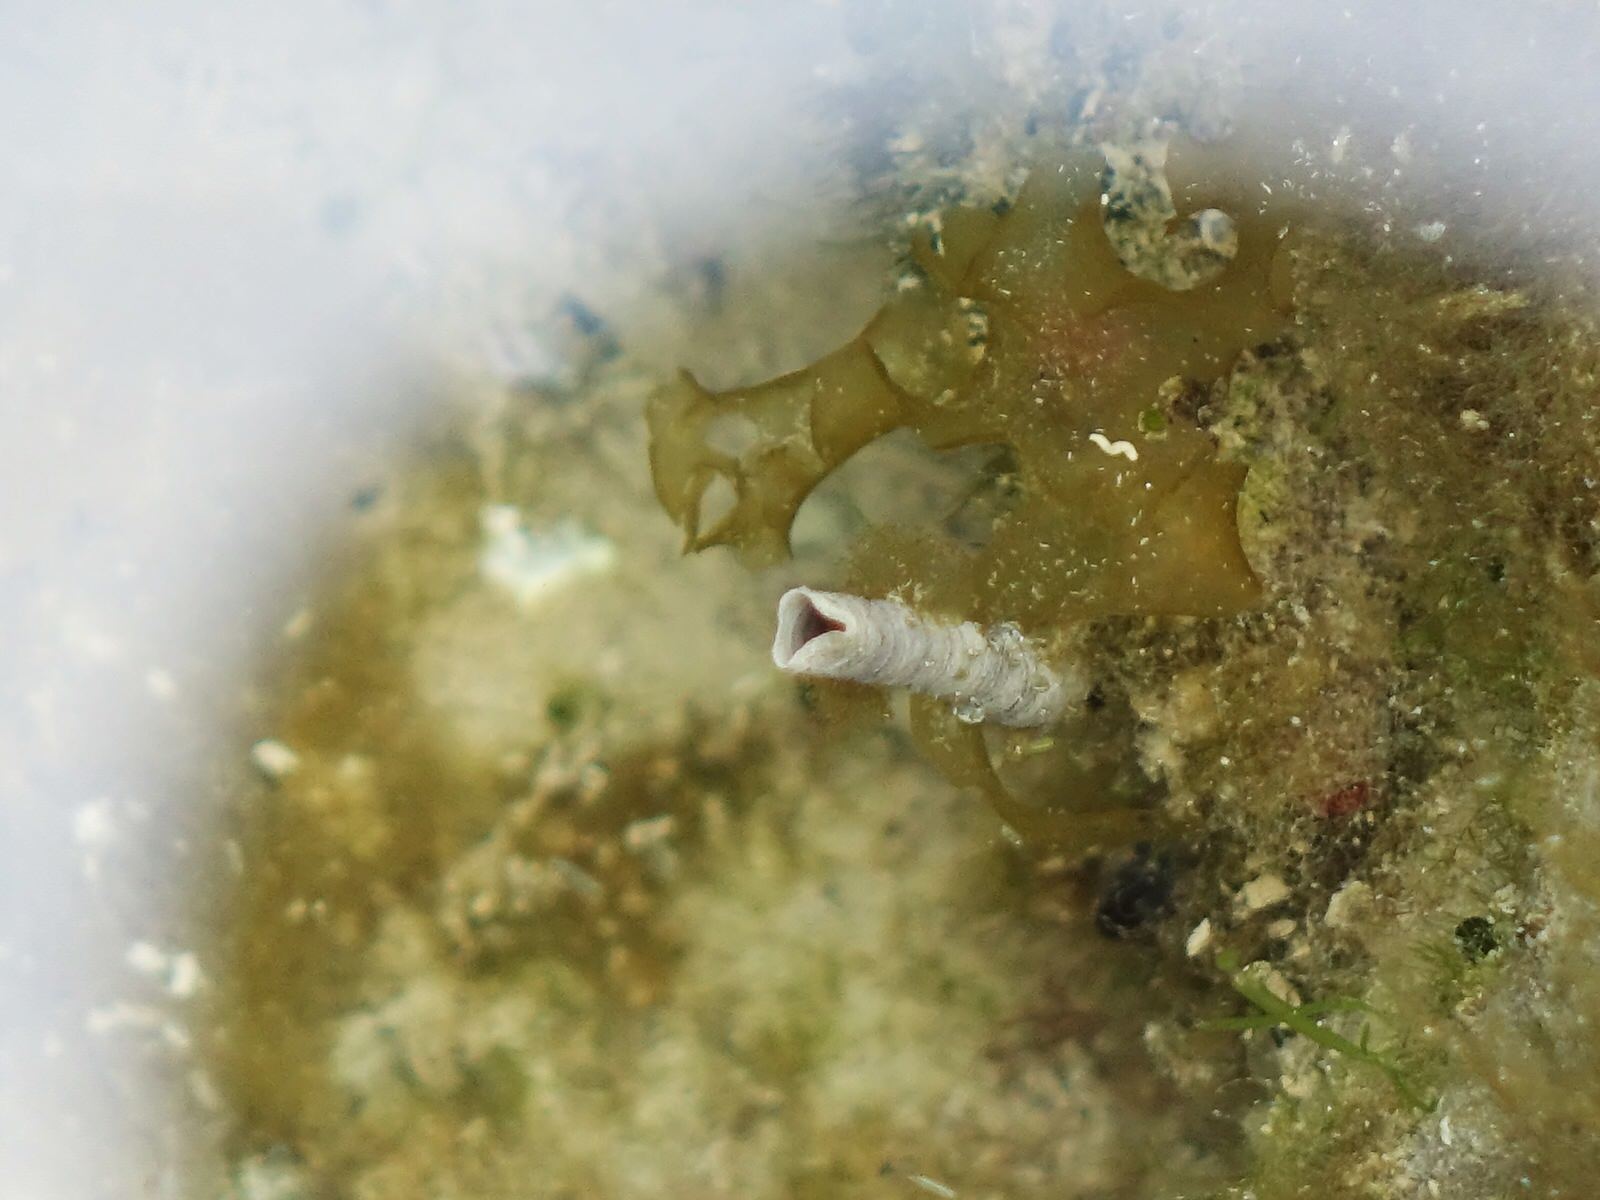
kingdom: Animalia
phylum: Annelida
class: Polychaeta
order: Sabellida
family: Sabellidae
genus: Sabella
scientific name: Sabella spallanzanii
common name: Feather duster worm
